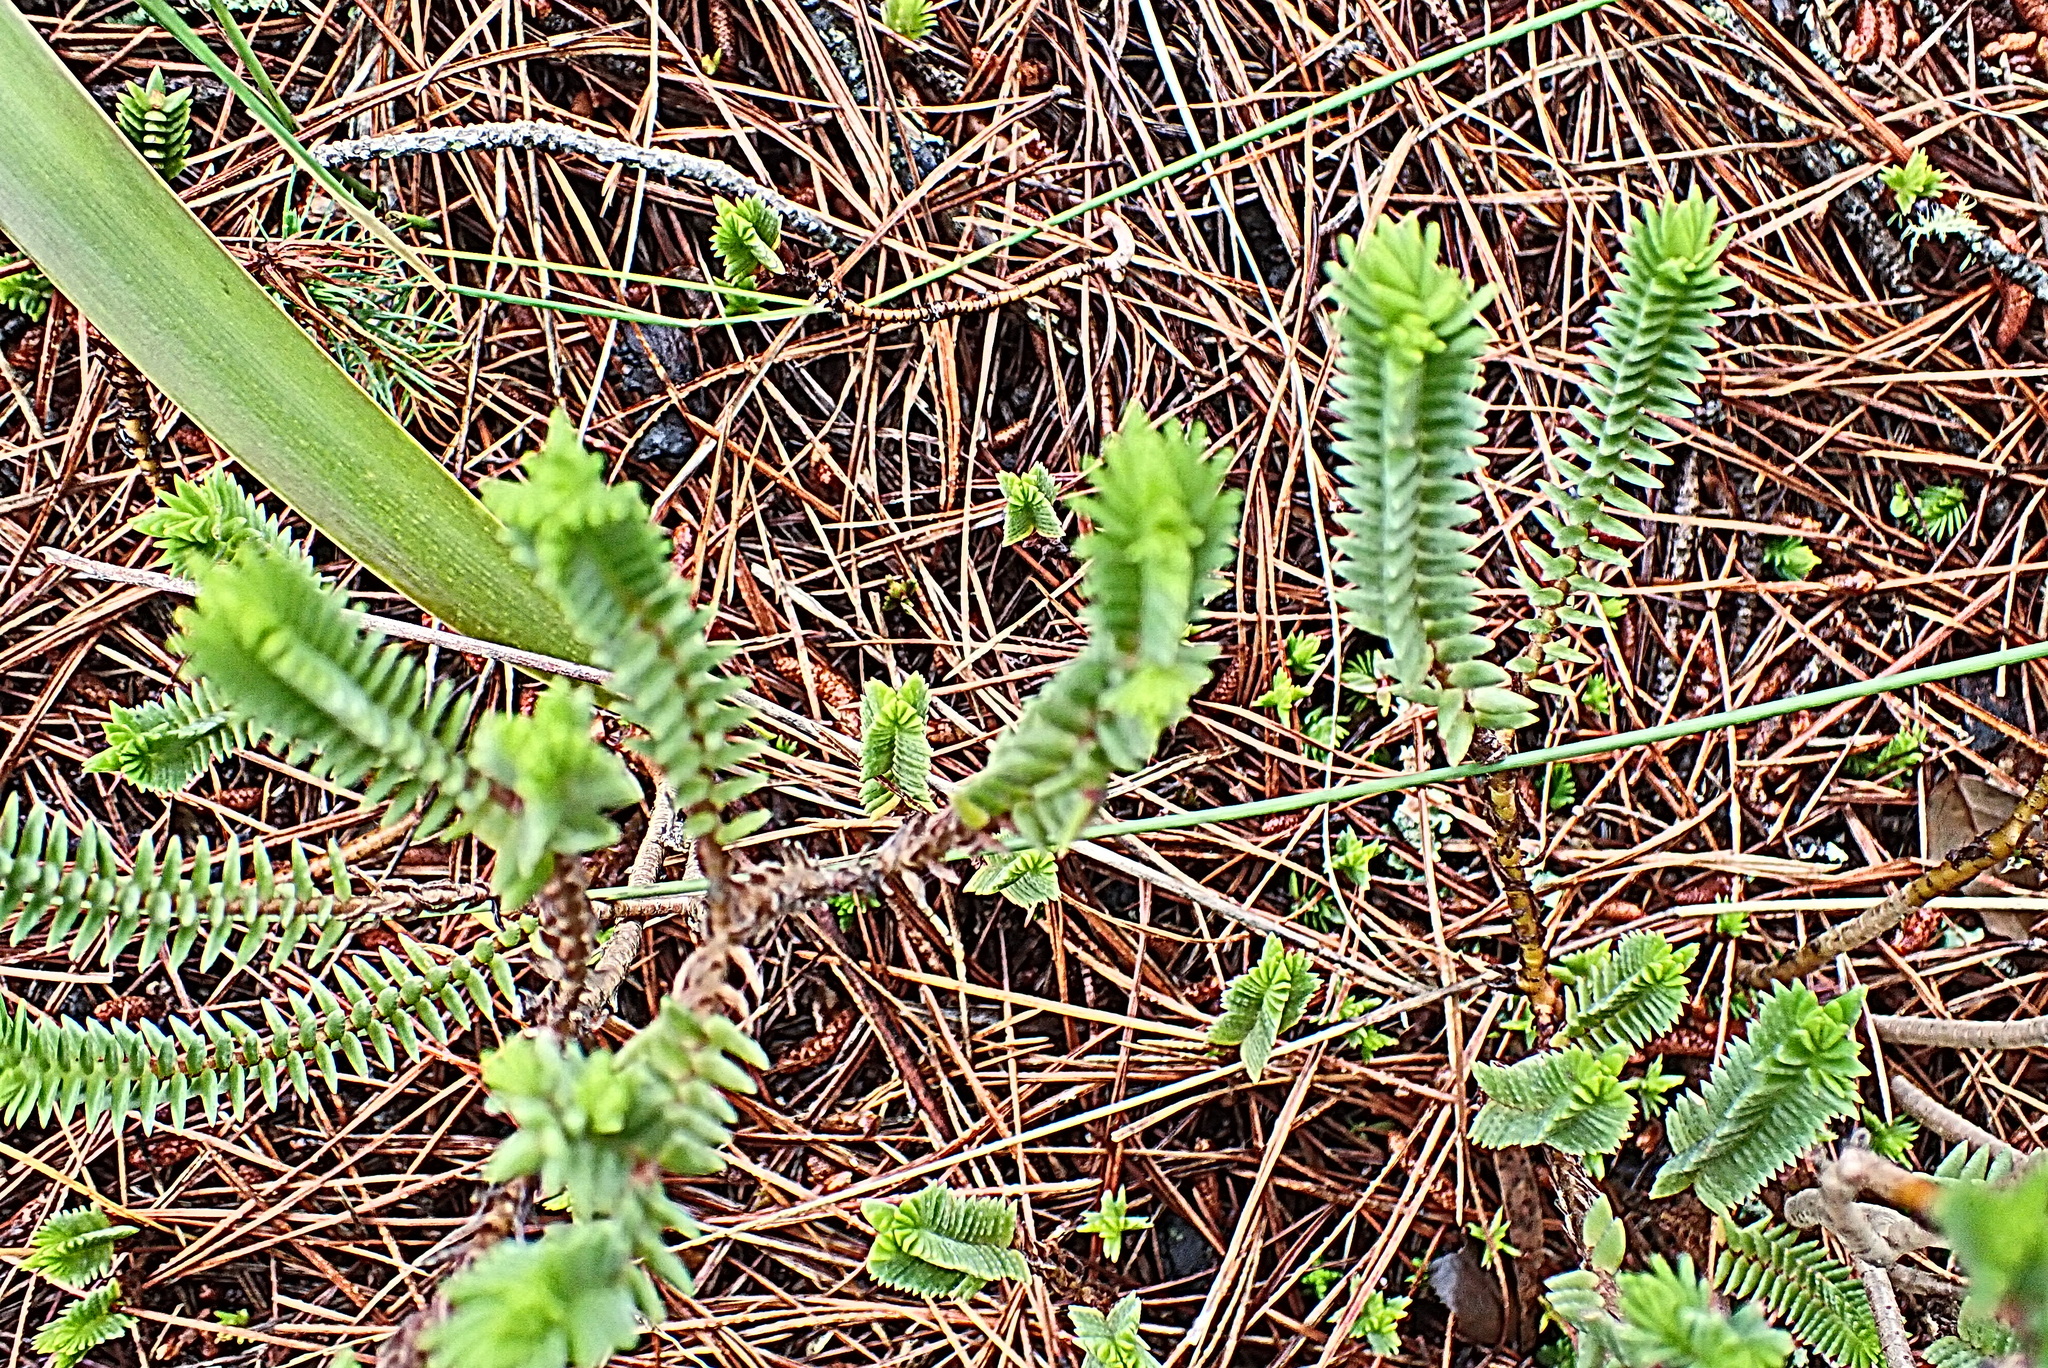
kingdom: Plantae
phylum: Tracheophyta
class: Magnoliopsida
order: Saxifragales
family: Crassulaceae
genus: Crassula
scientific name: Crassula ericoides
